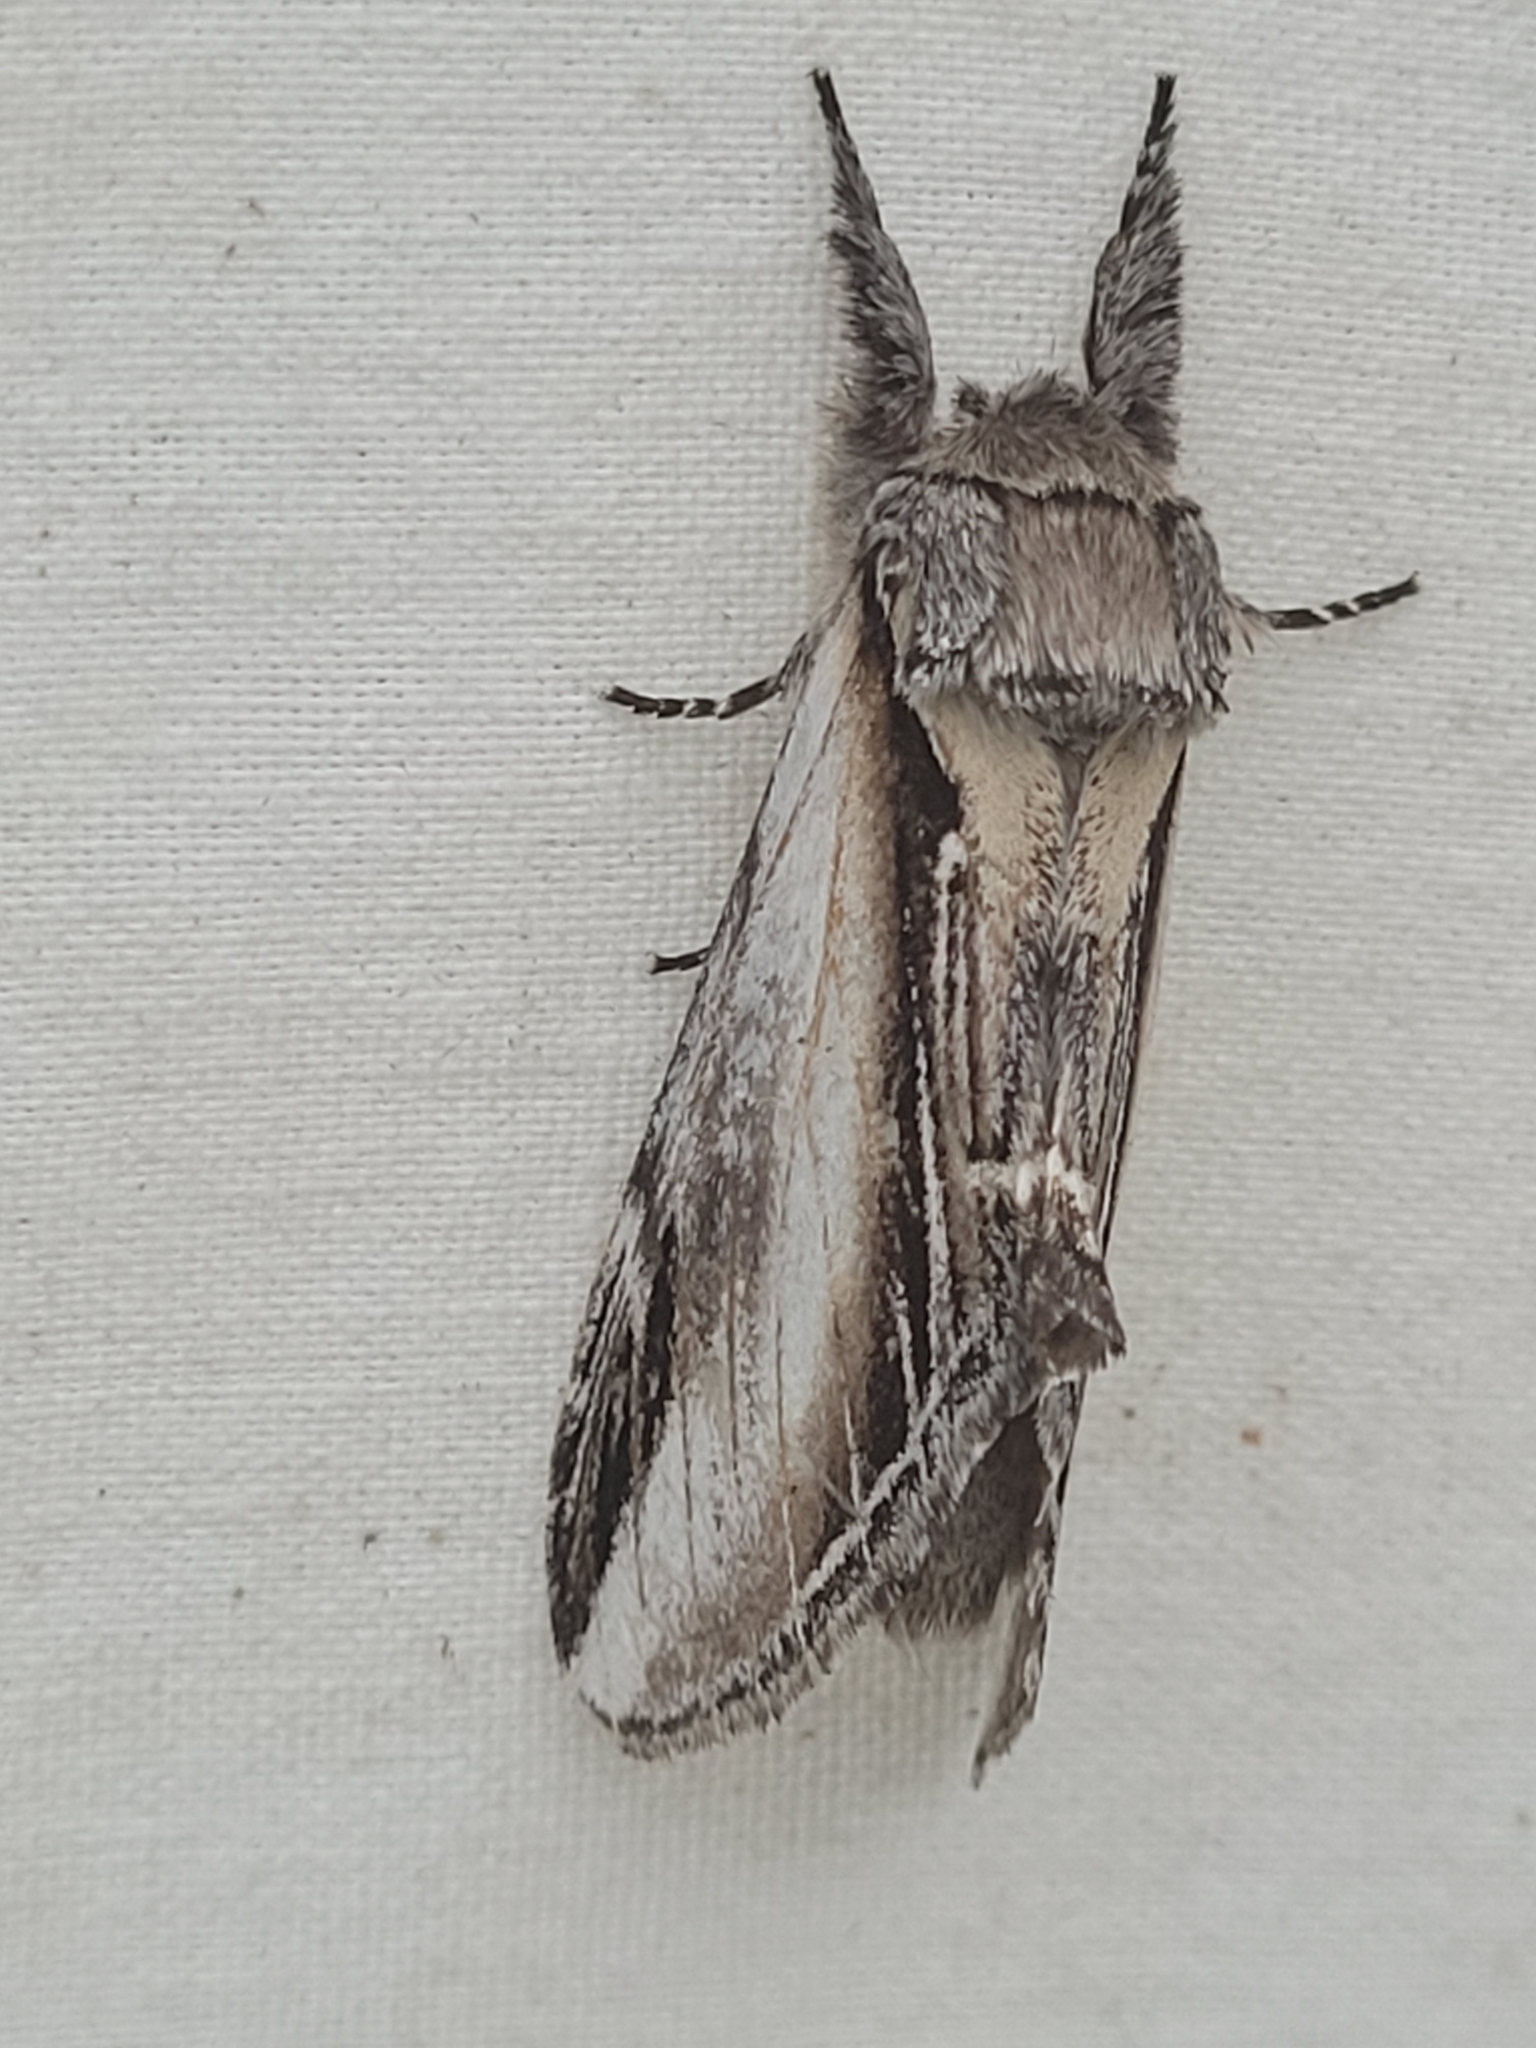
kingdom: Animalia
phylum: Arthropoda
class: Insecta
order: Lepidoptera
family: Notodontidae
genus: Pheosia
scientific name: Pheosia rimosa
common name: Black-rimmed prominent
